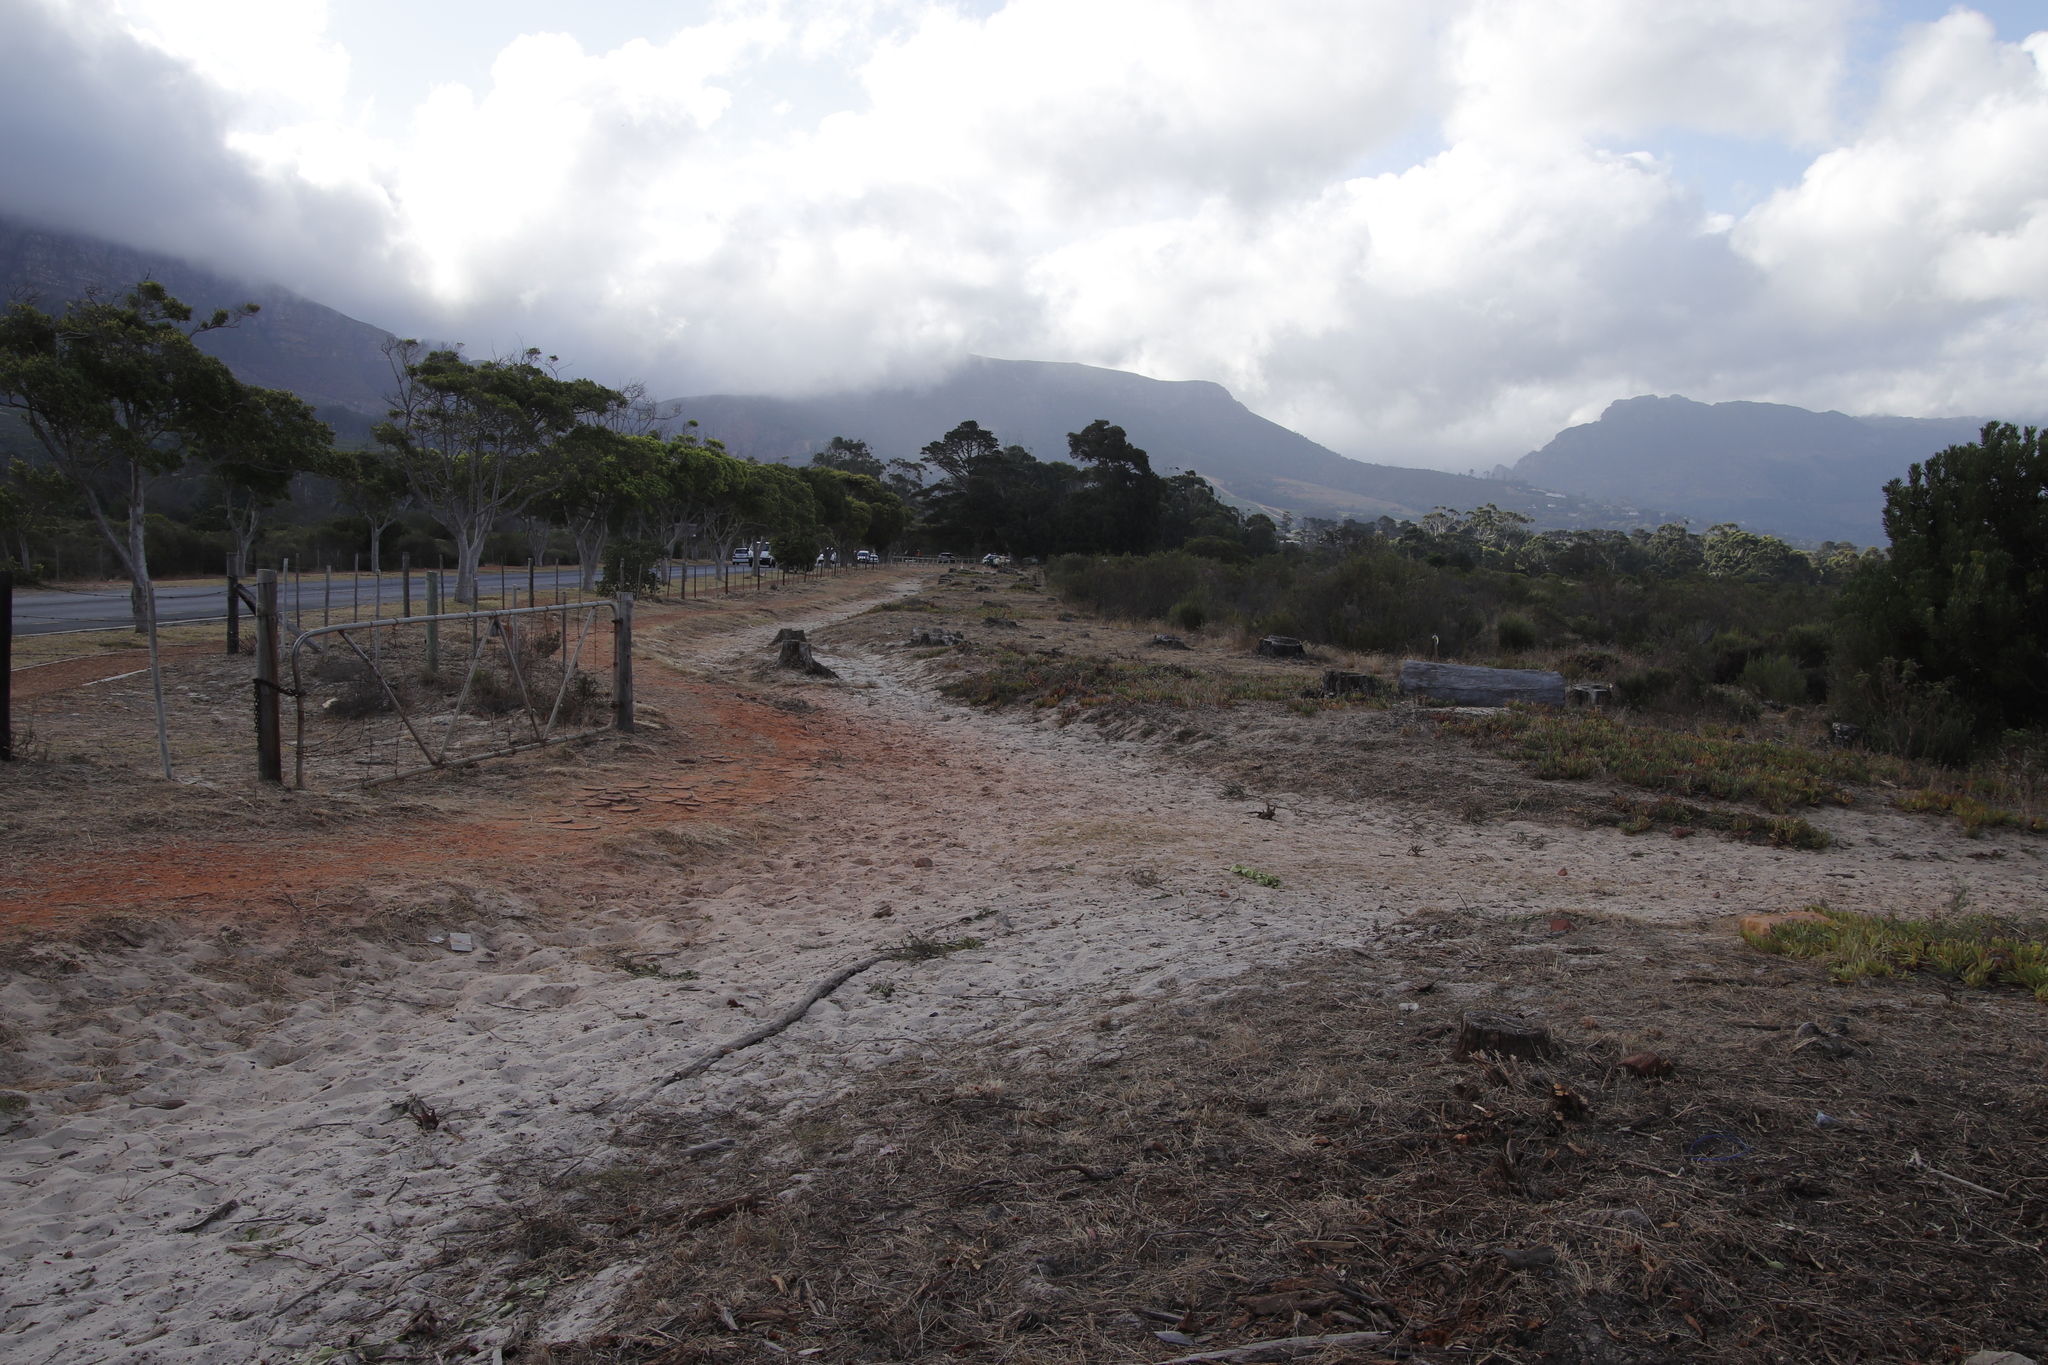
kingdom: Plantae
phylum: Tracheophyta
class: Magnoliopsida
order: Caryophyllales
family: Aizoaceae
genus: Carpobrotus
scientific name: Carpobrotus edulis
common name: Hottentot-fig
